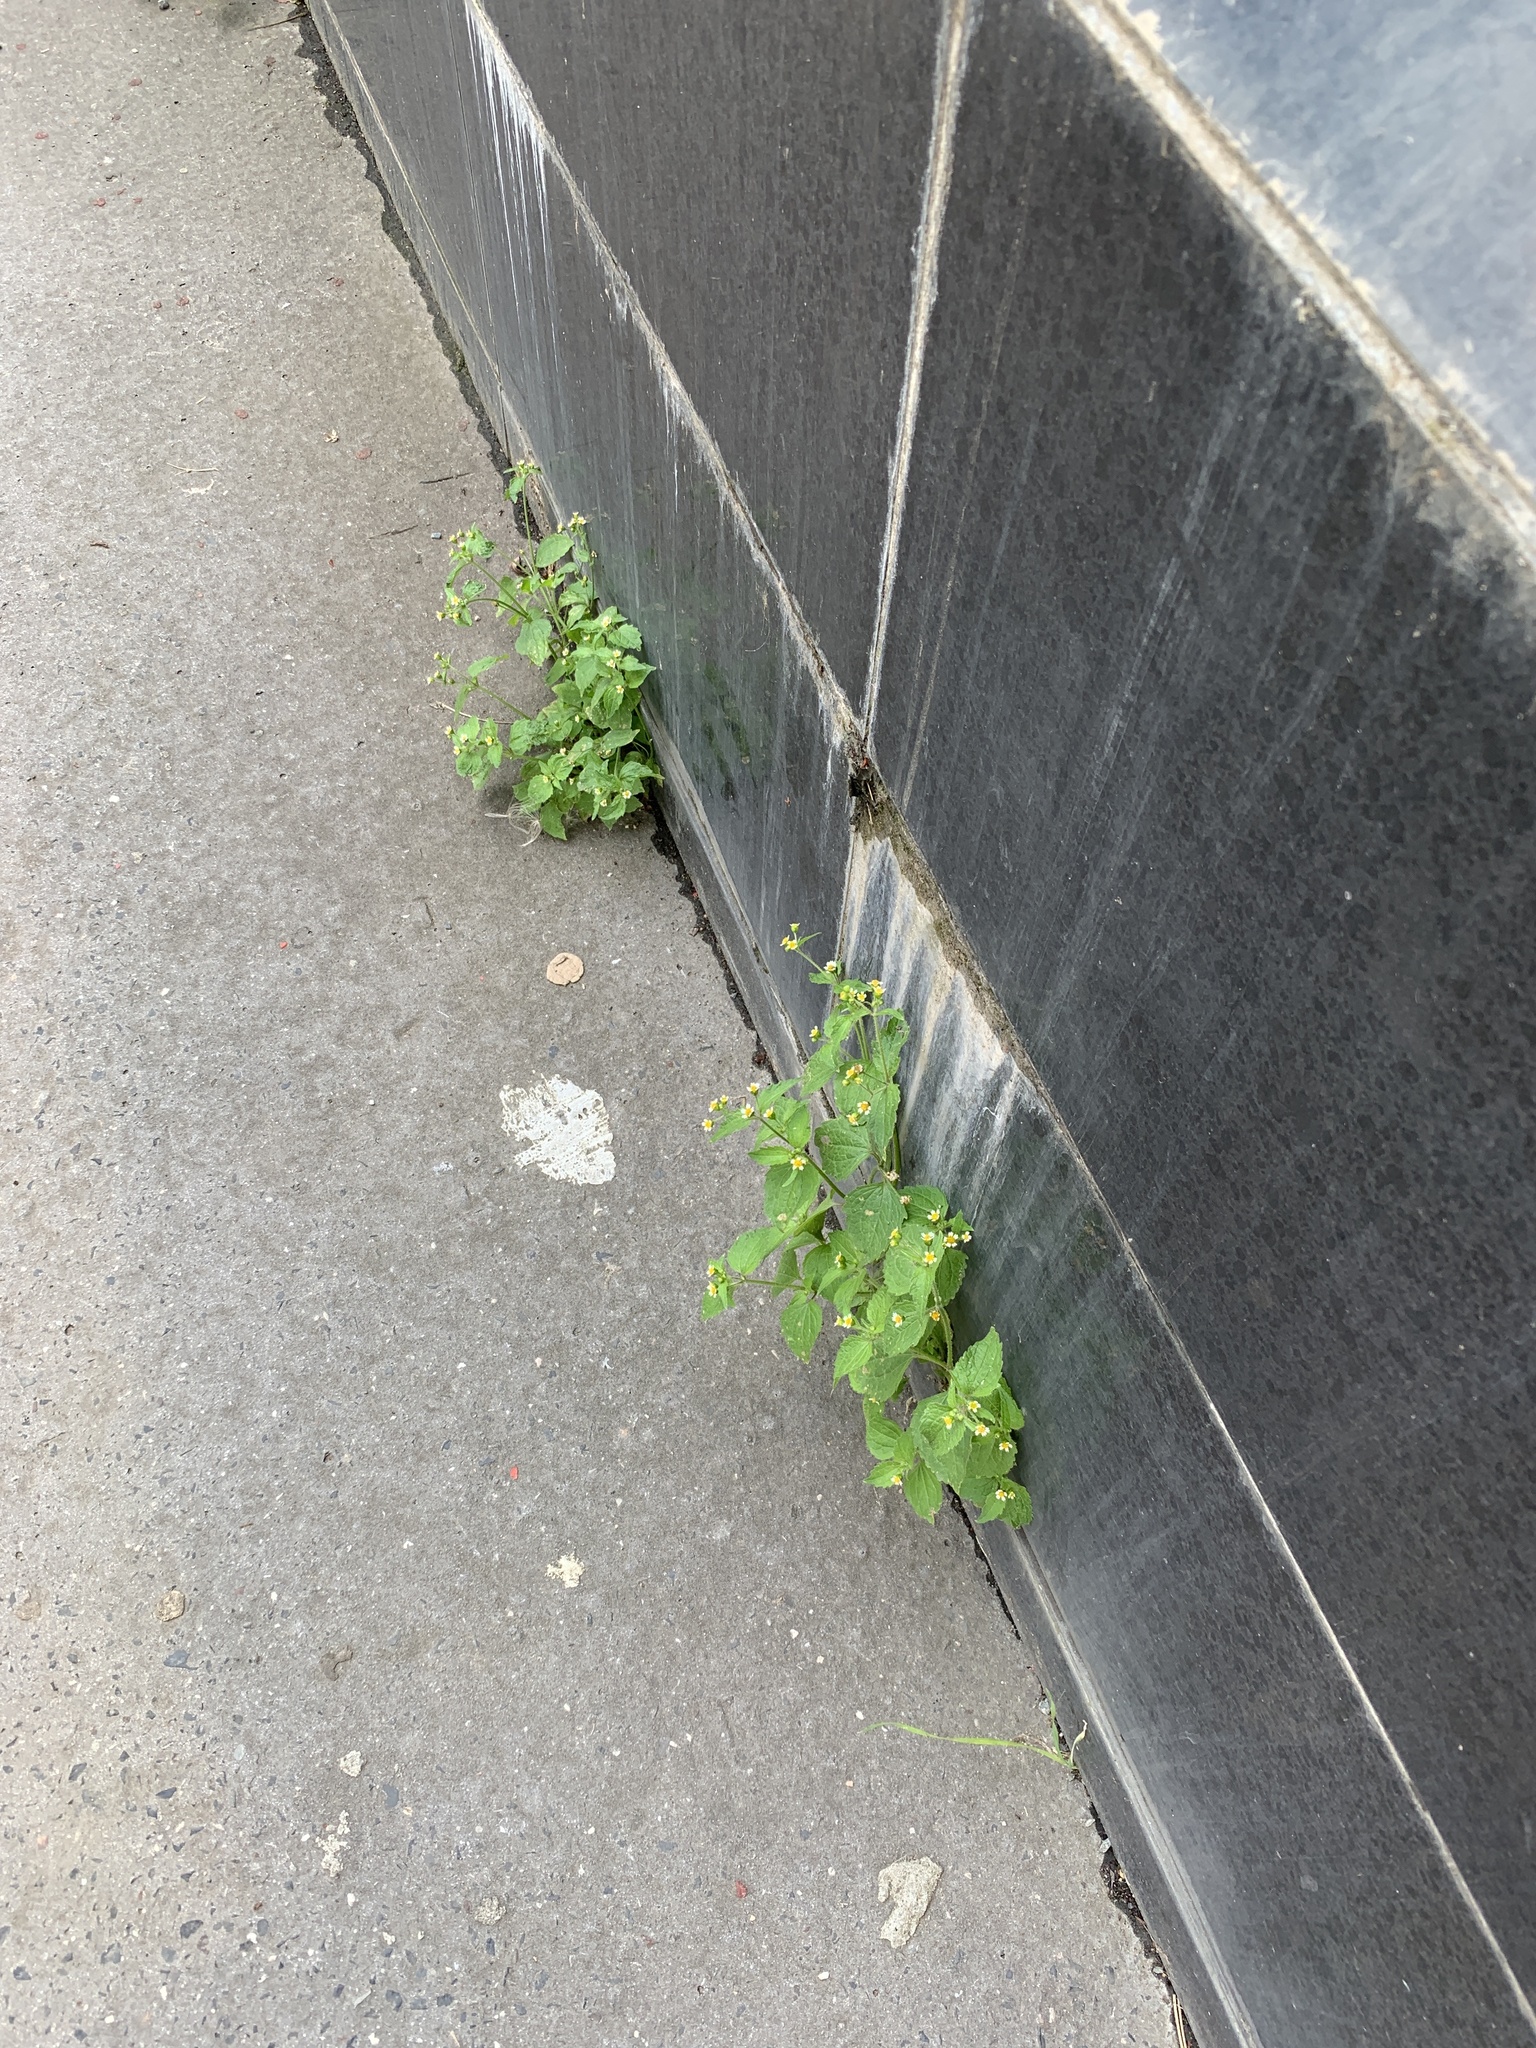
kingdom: Plantae
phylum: Tracheophyta
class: Magnoliopsida
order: Asterales
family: Asteraceae
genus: Galinsoga
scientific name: Galinsoga quadriradiata
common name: Shaggy soldier
